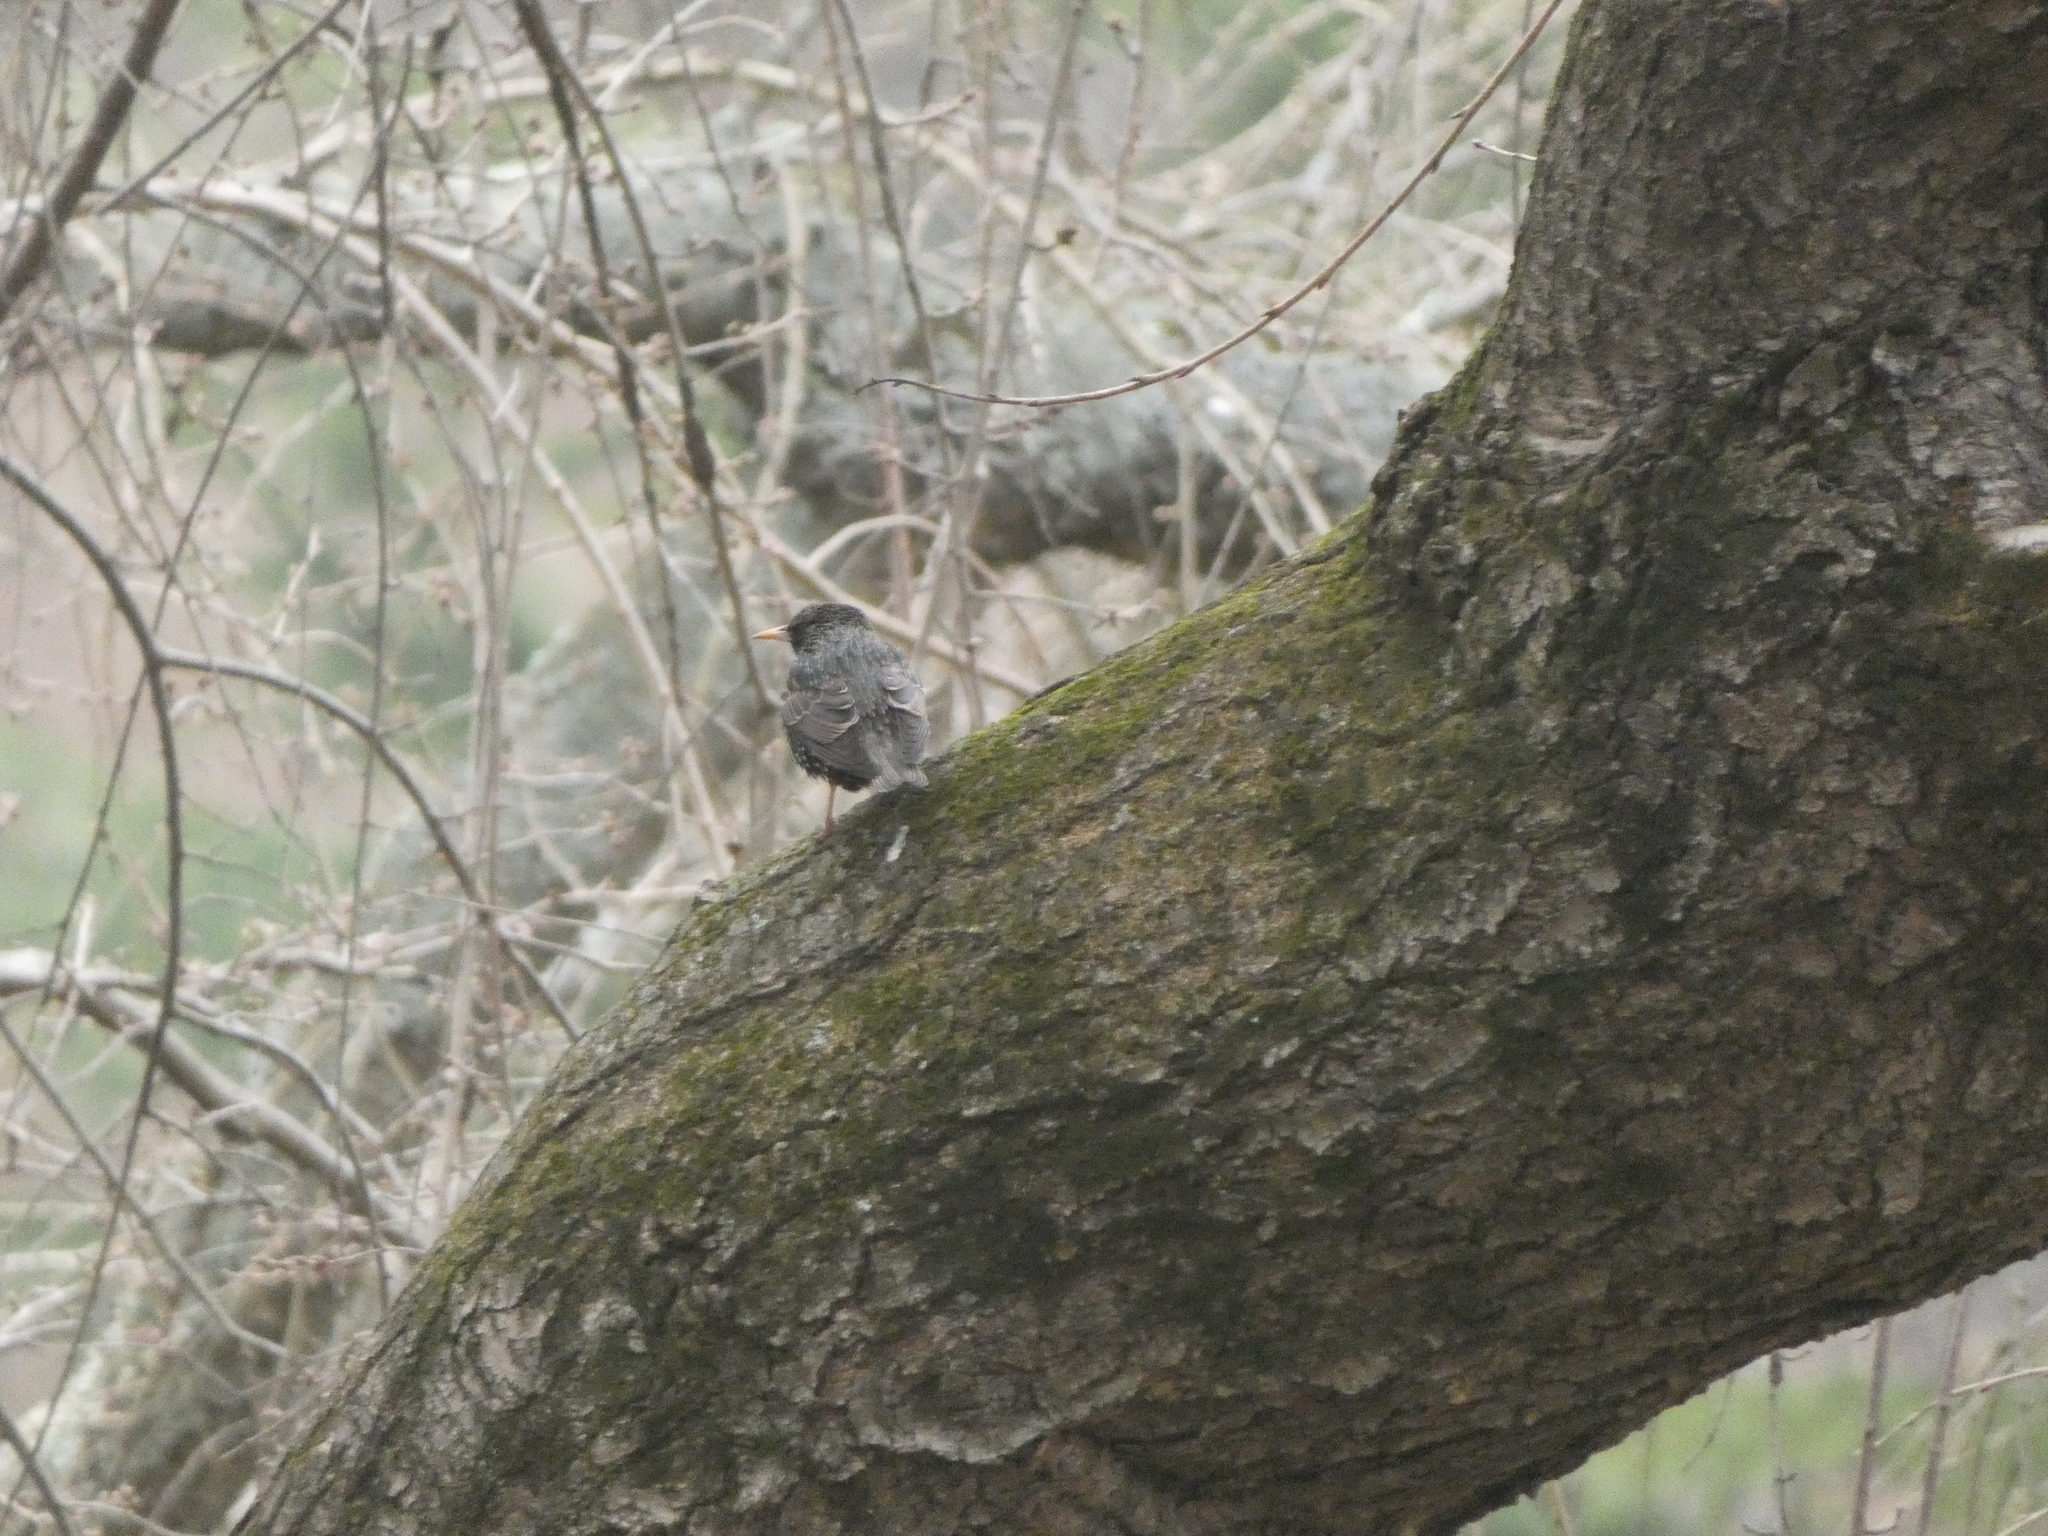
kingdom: Animalia
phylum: Chordata
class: Aves
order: Passeriformes
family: Sturnidae
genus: Sturnus
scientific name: Sturnus vulgaris
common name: Common starling
